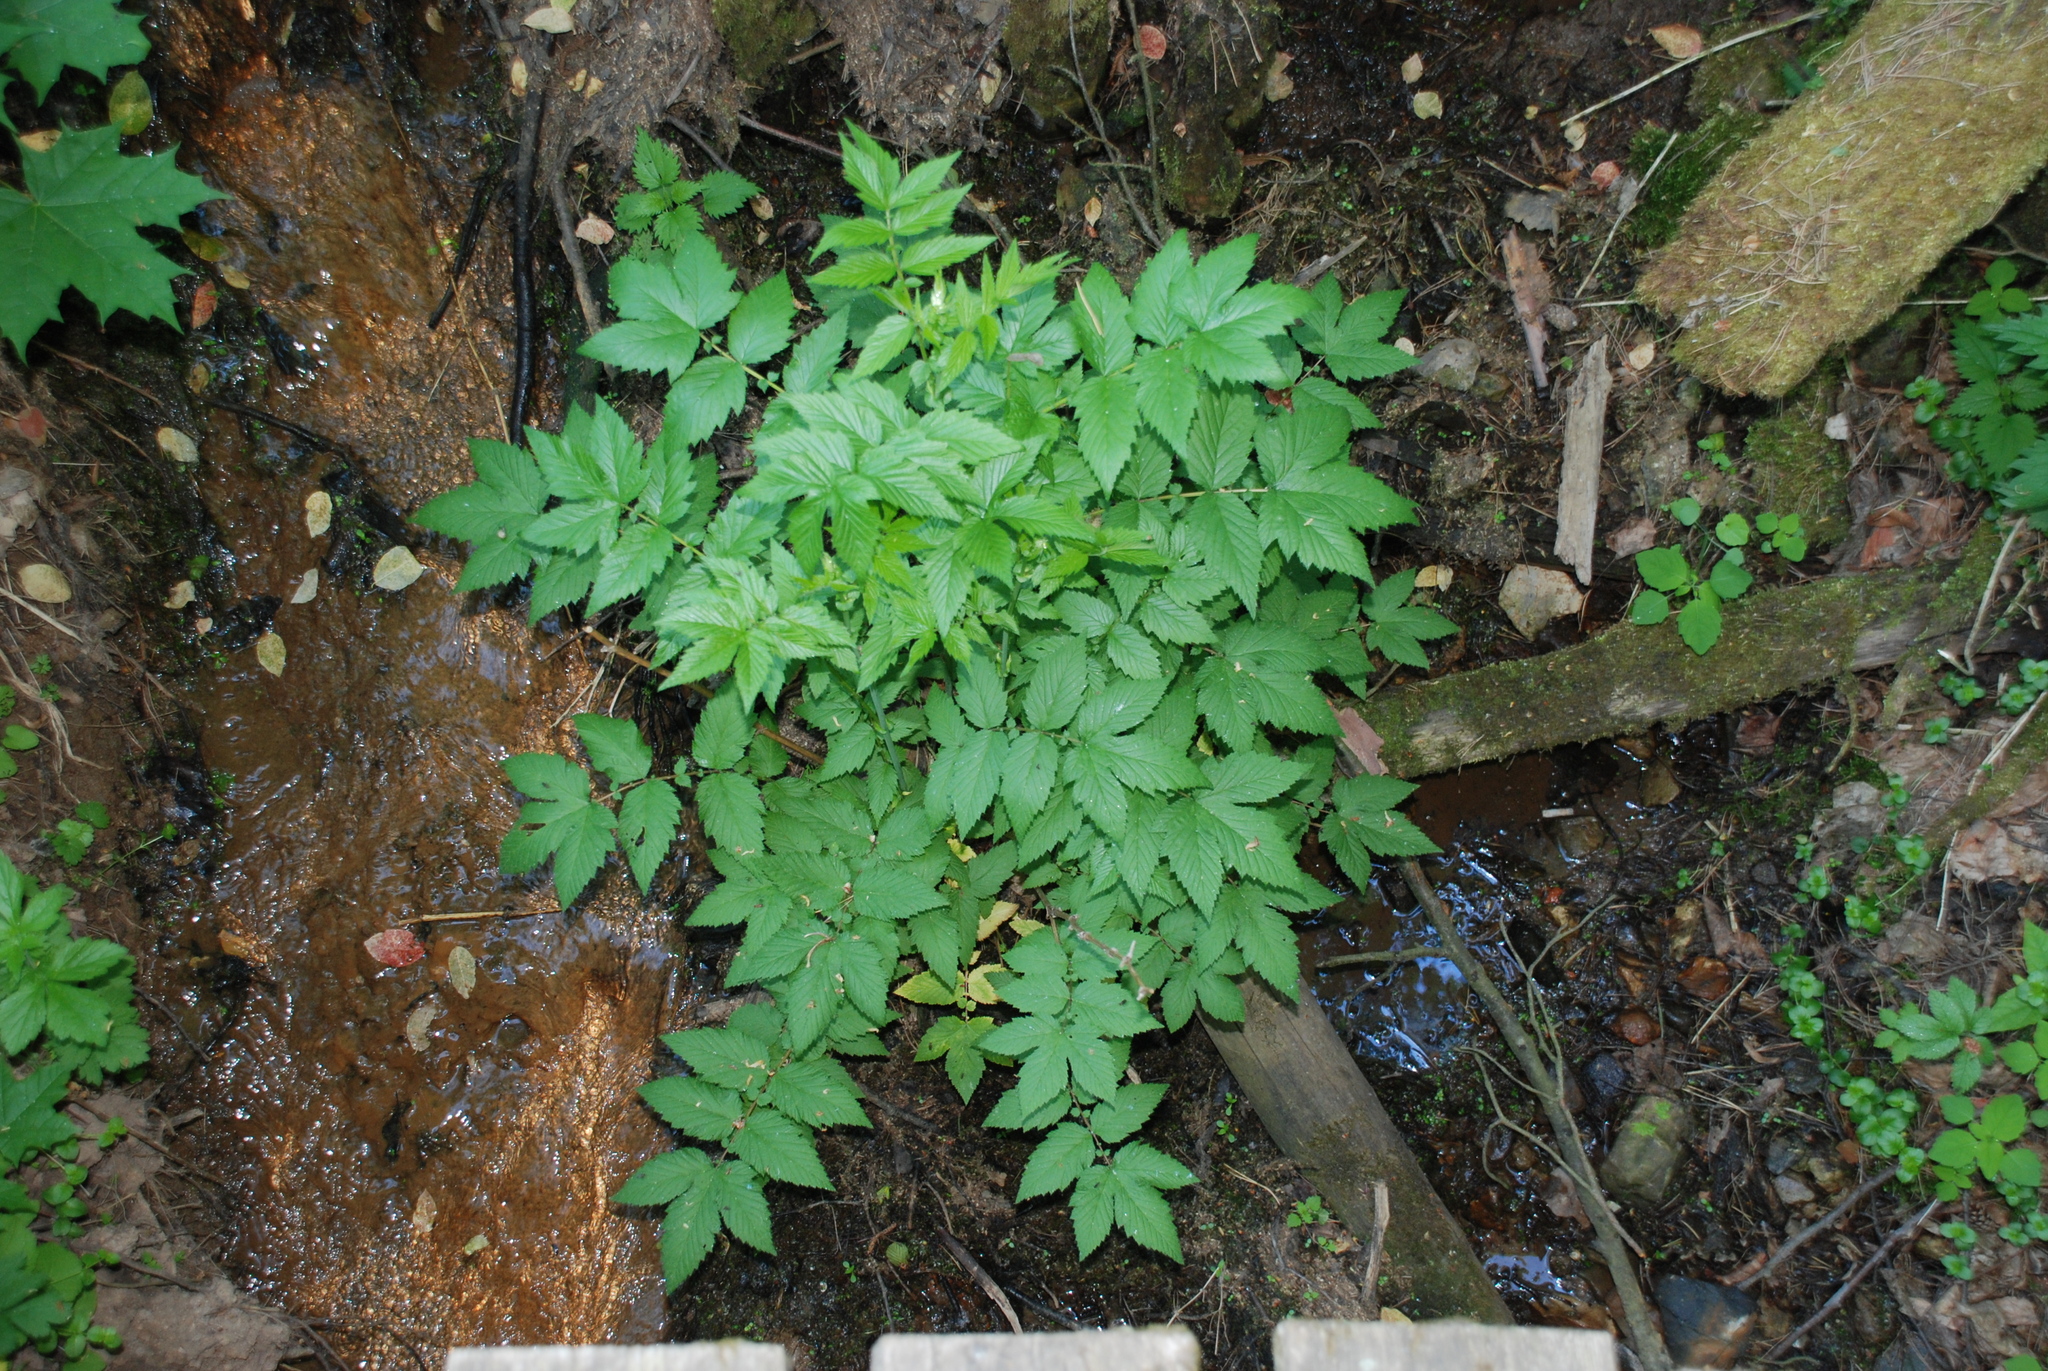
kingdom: Plantae
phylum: Tracheophyta
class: Magnoliopsida
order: Rosales
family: Rosaceae
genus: Filipendula
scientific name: Filipendula ulmaria
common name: Meadowsweet
